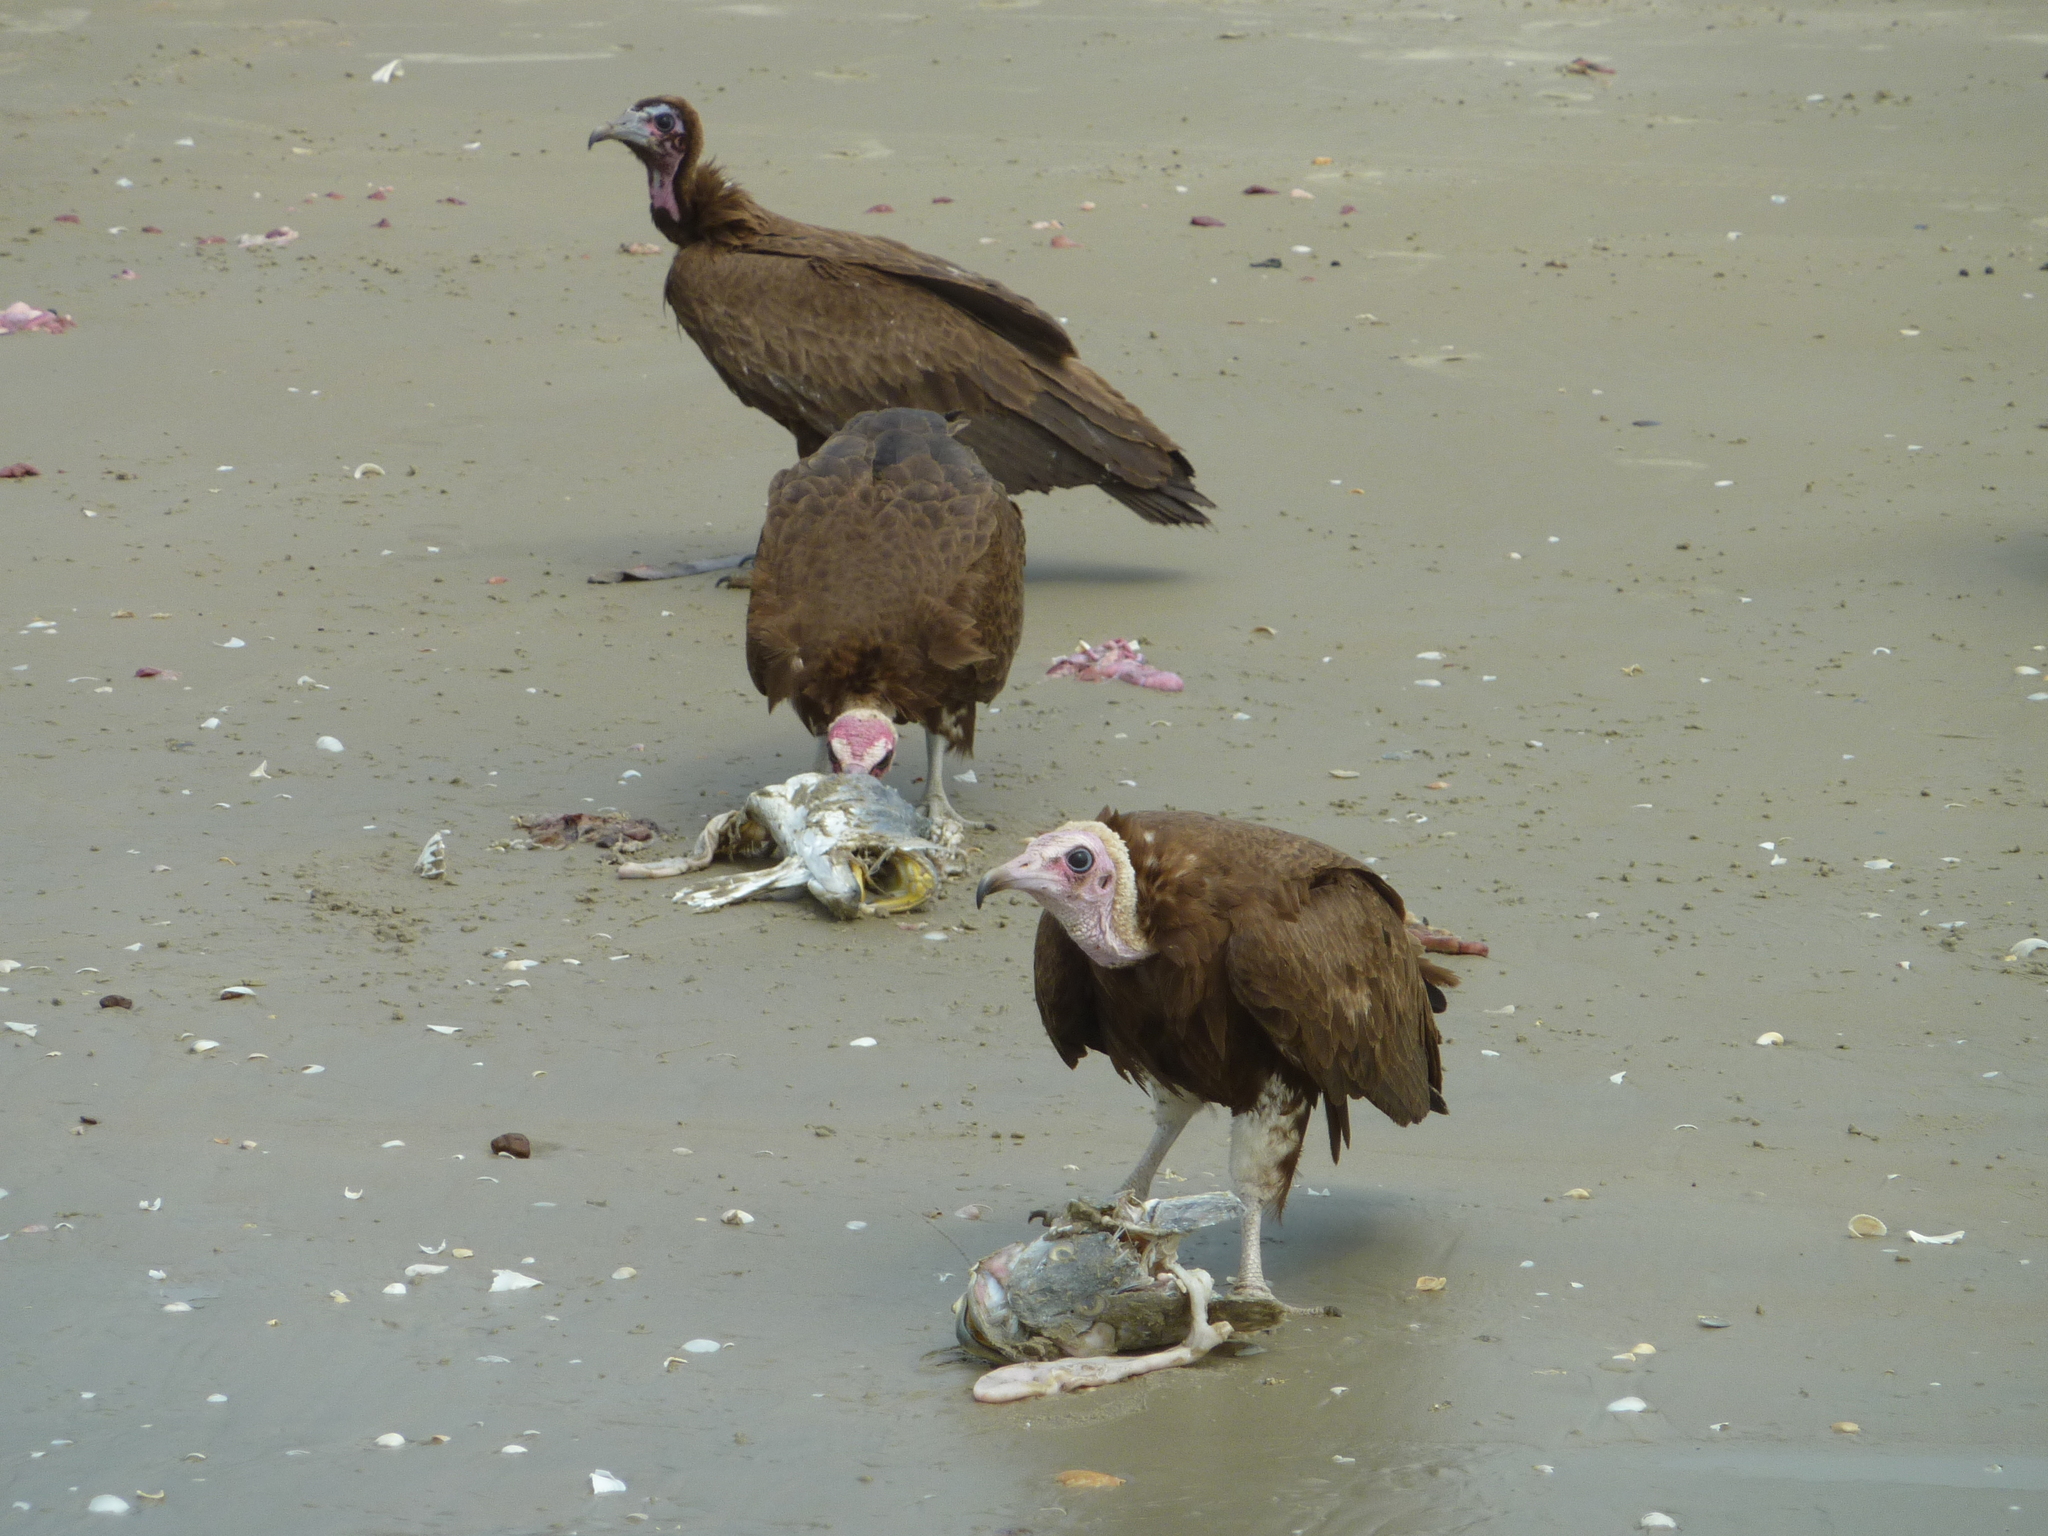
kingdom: Animalia
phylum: Chordata
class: Aves
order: Accipitriformes
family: Accipitridae
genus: Necrosyrtes
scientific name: Necrosyrtes monachus
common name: Hooded vulture
